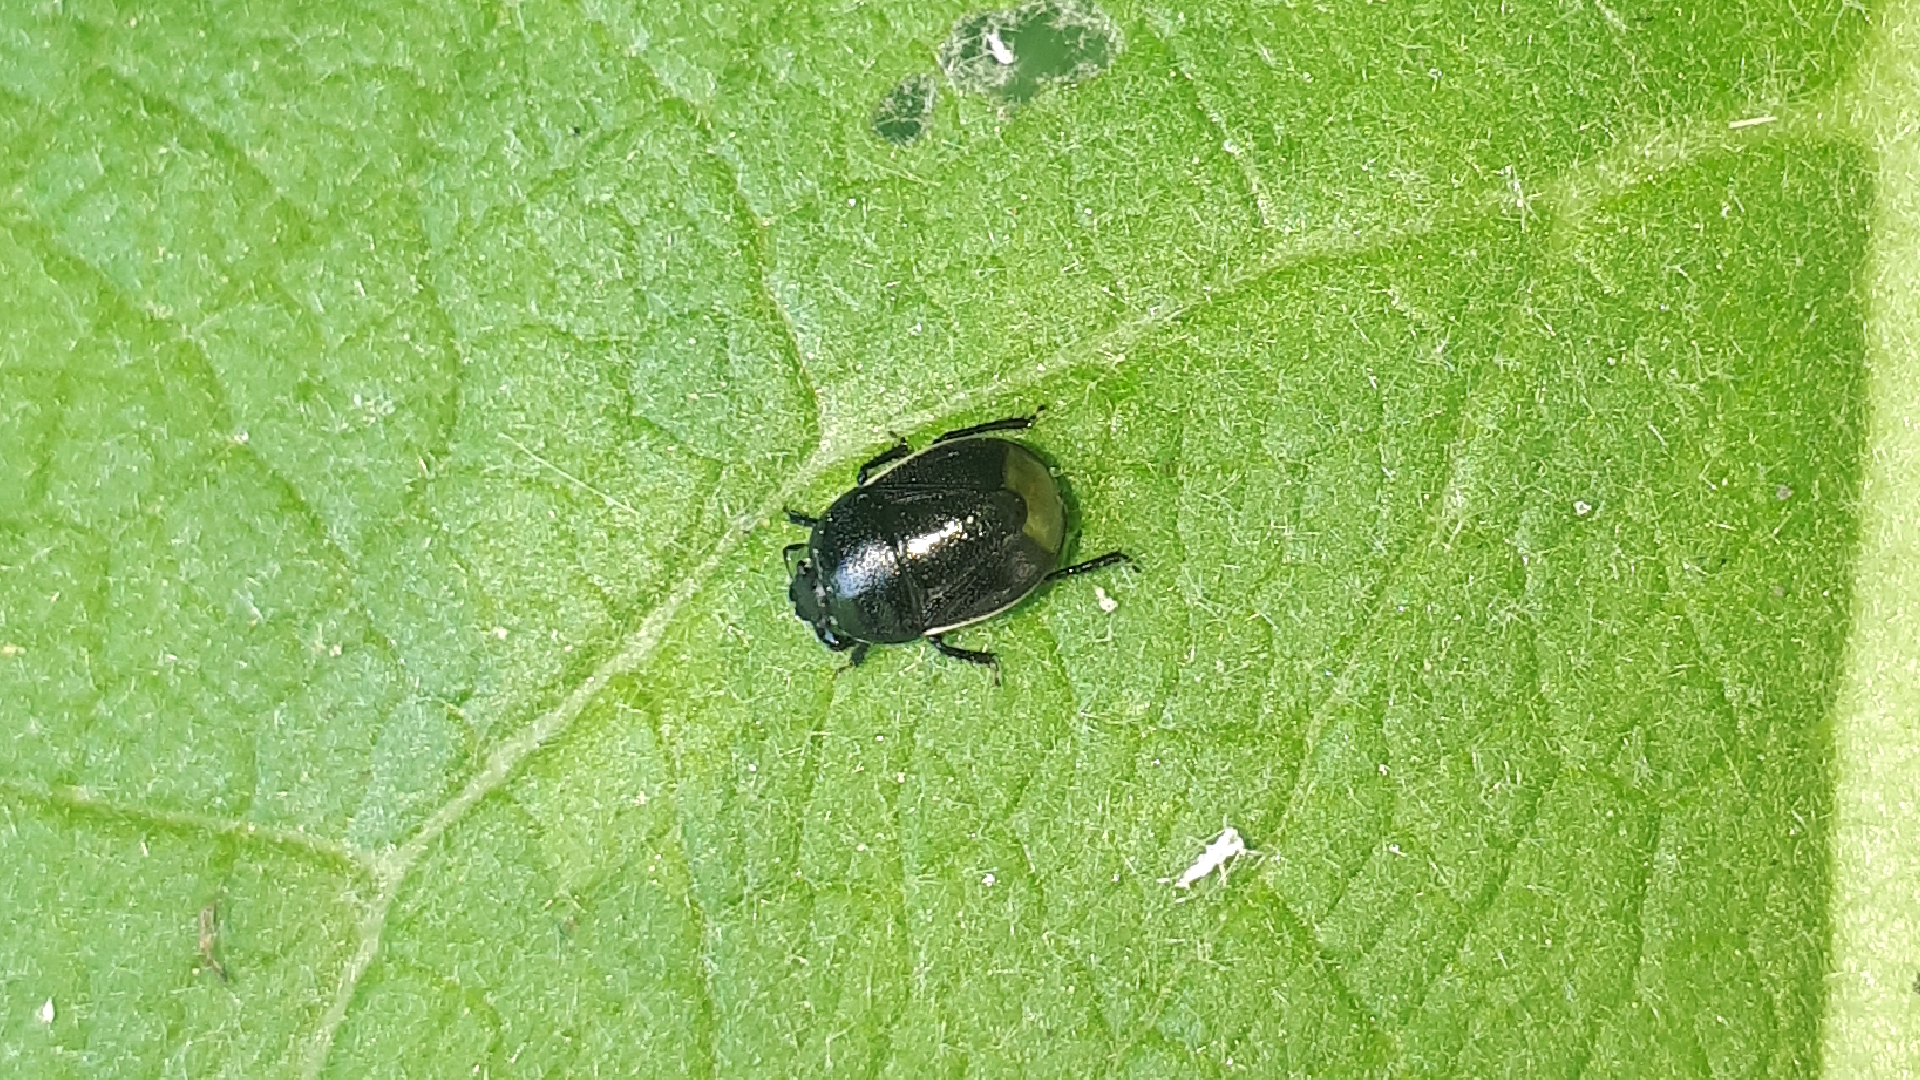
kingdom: Animalia
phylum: Arthropoda
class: Insecta
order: Hemiptera
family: Cydnidae
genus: Legnotus
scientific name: Legnotus limbosus
